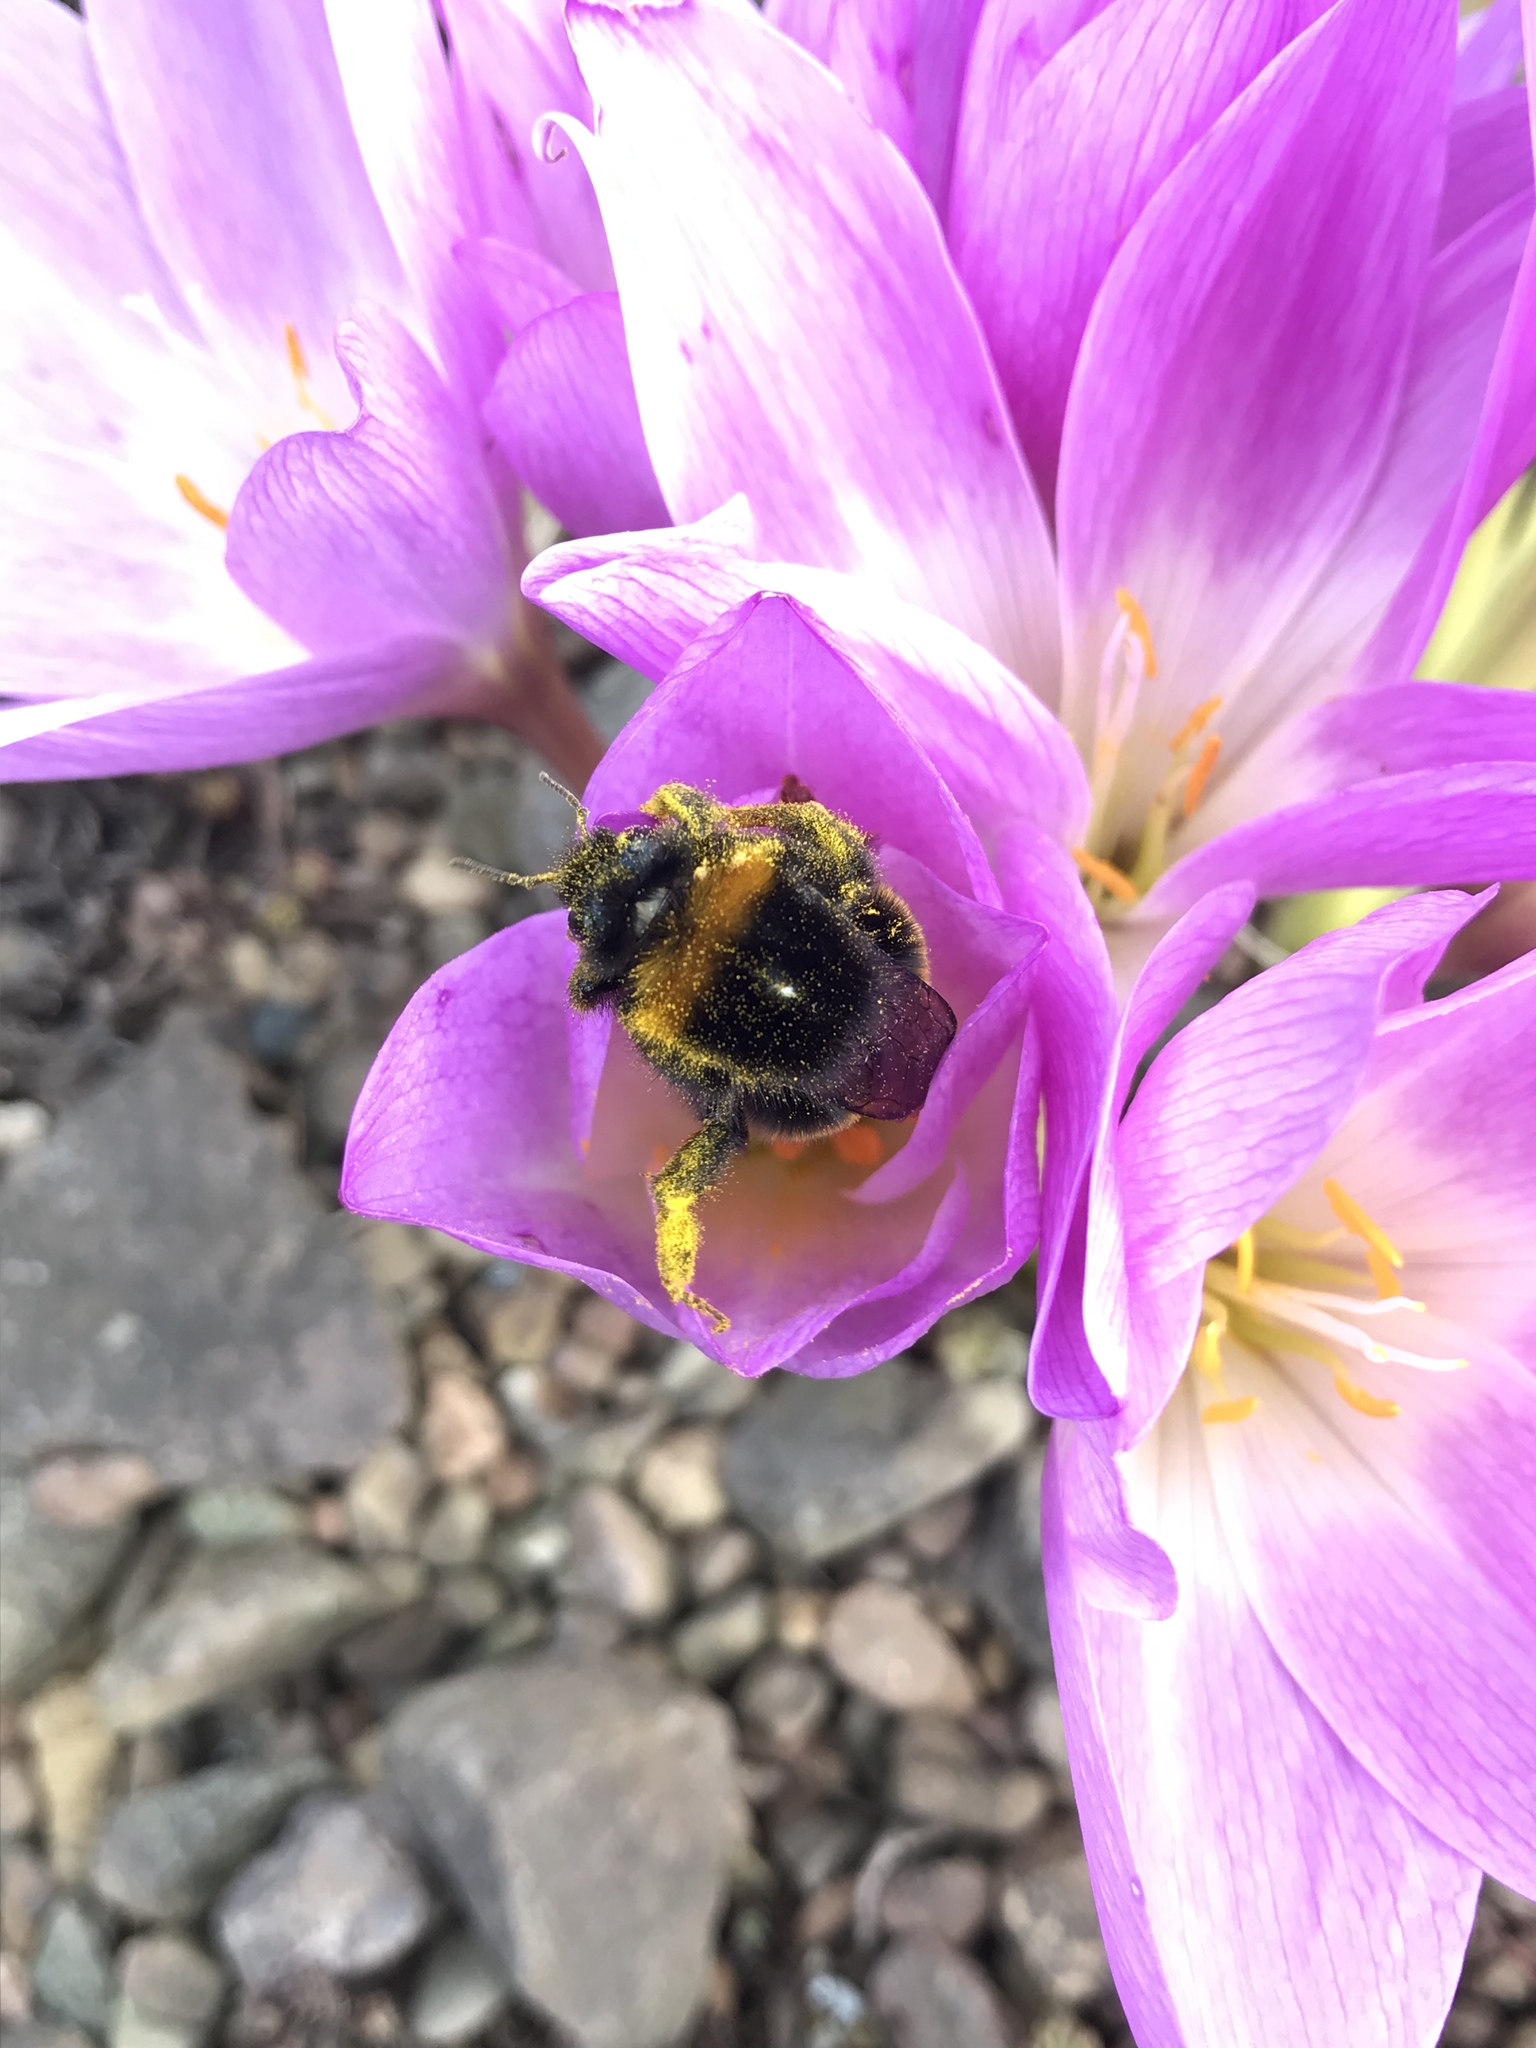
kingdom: Animalia
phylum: Arthropoda
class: Insecta
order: Hymenoptera
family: Apidae
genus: Bombus
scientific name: Bombus terrestris
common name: Buff-tailed bumblebee
